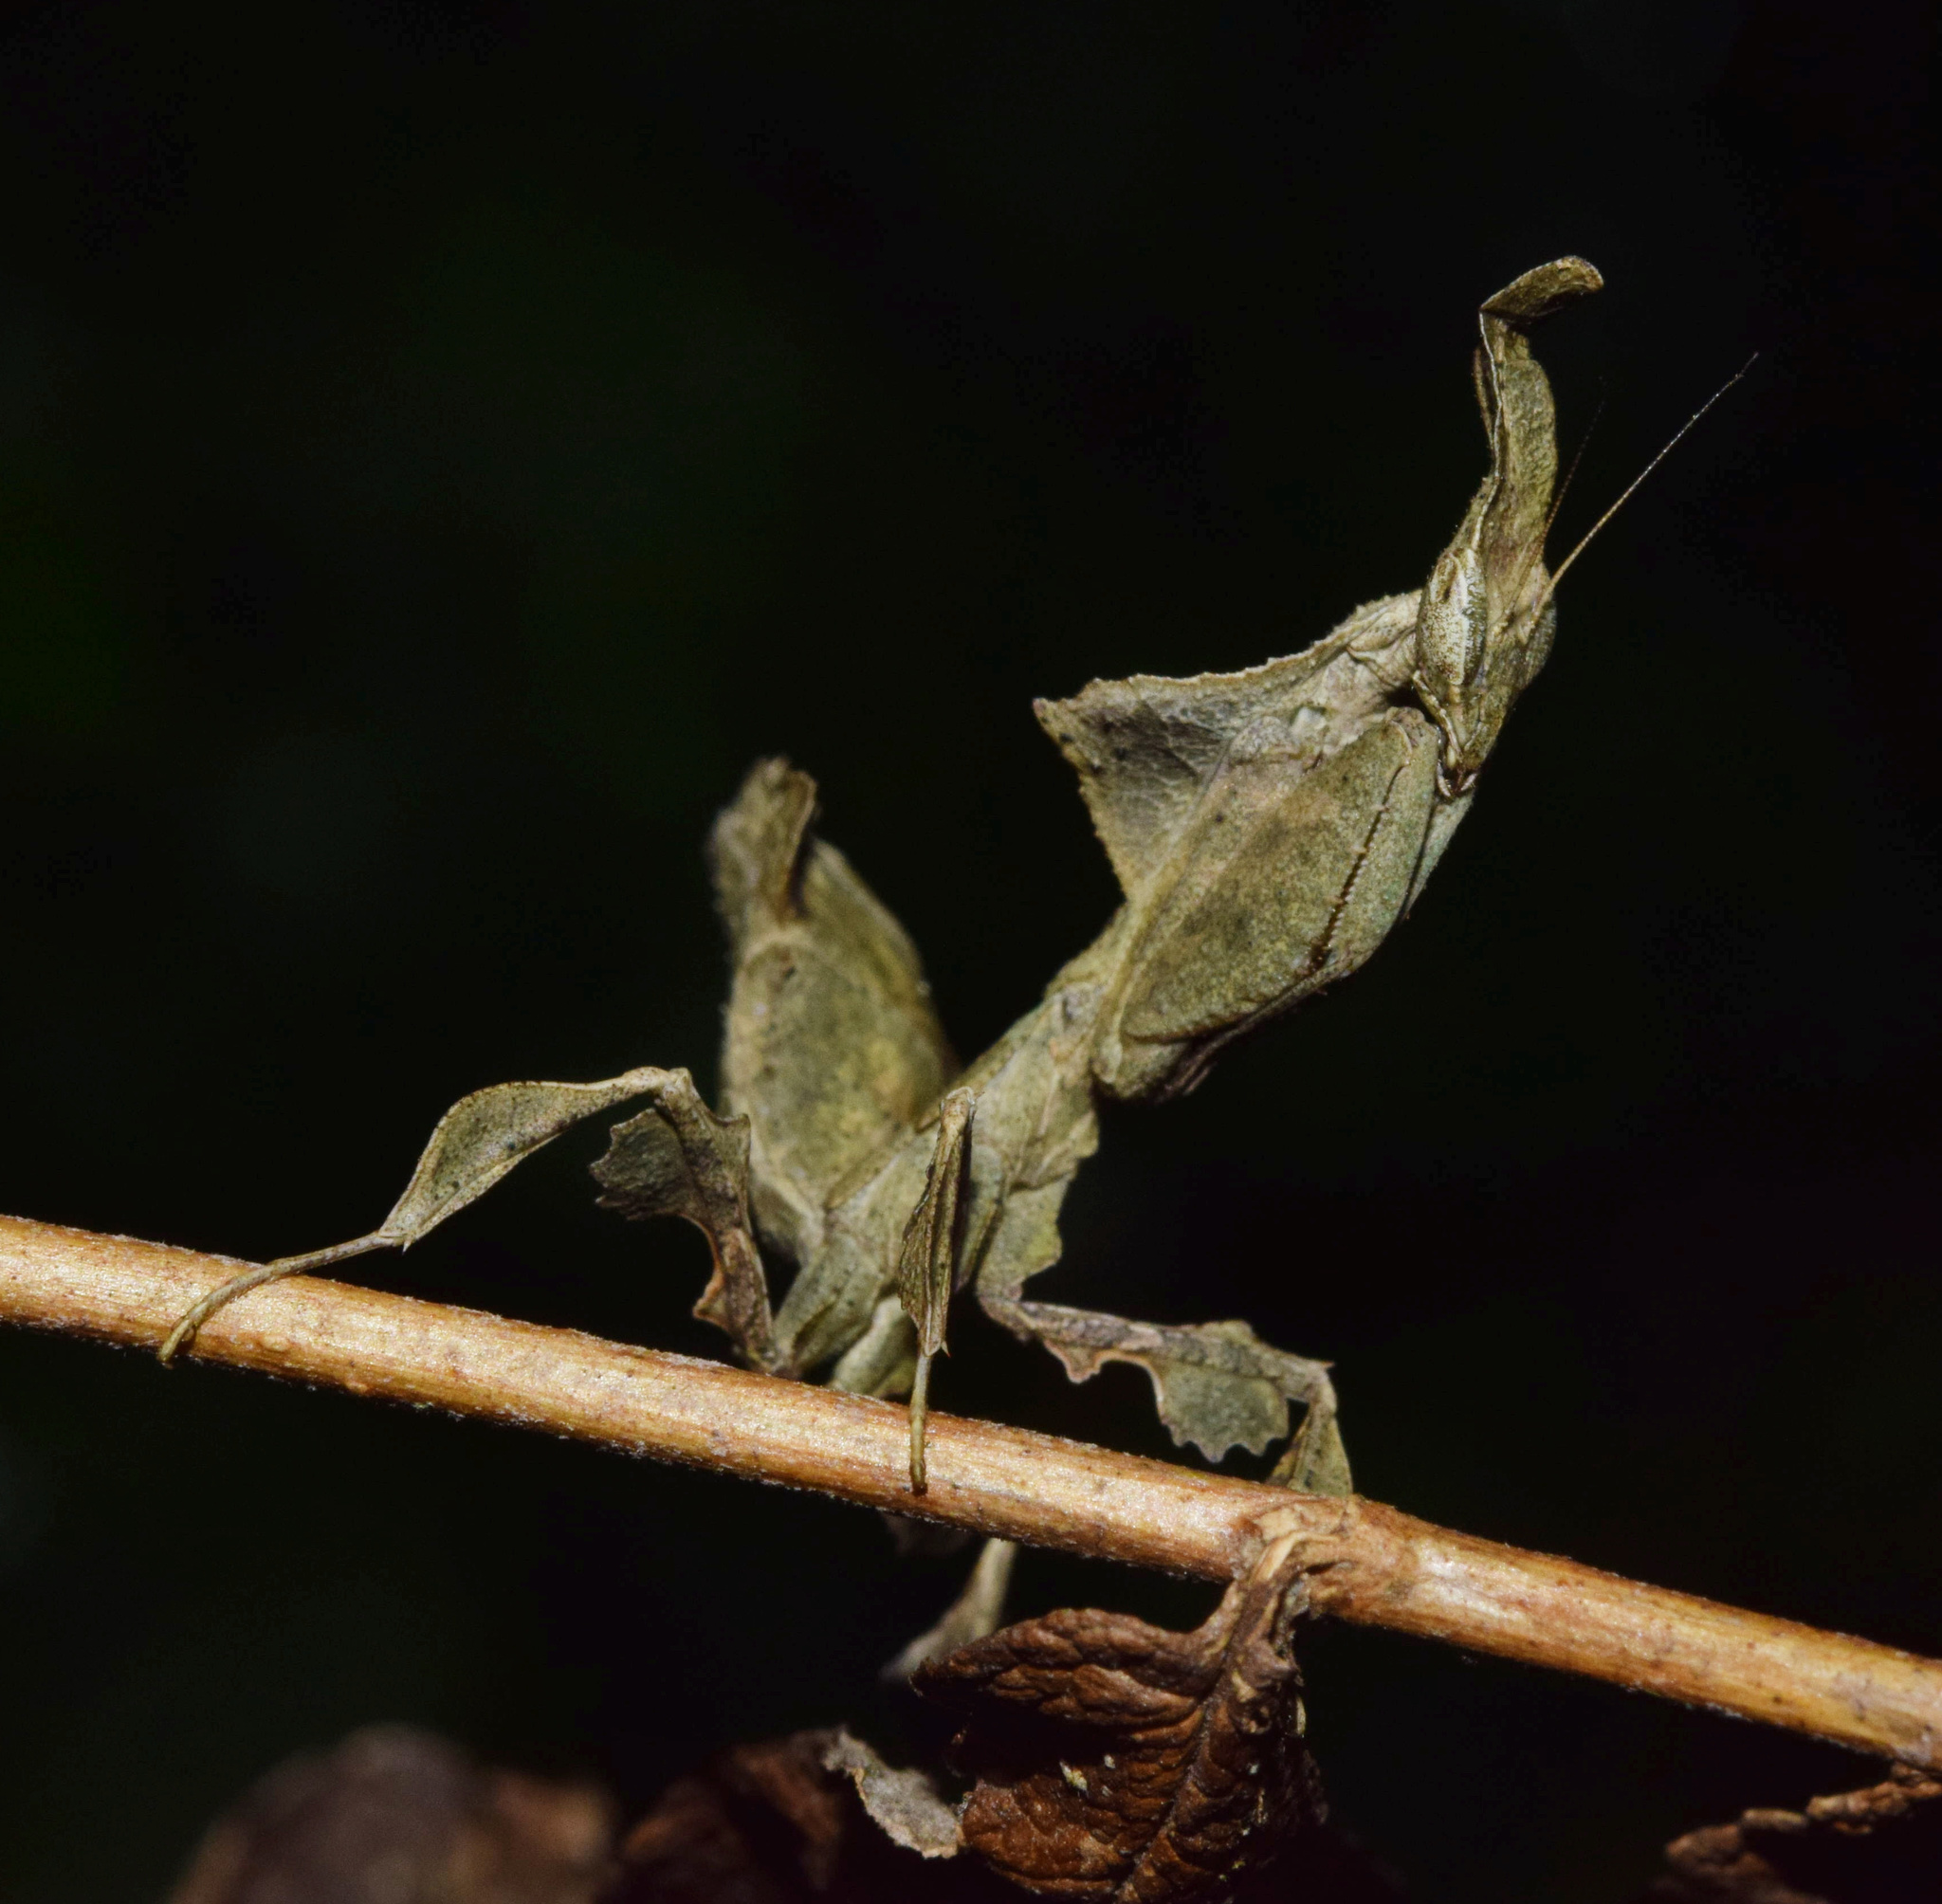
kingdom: Animalia
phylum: Arthropoda
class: Insecta
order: Mantodea
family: Hymenopodidae
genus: Phyllocrania
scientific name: Phyllocrania paradoxa
